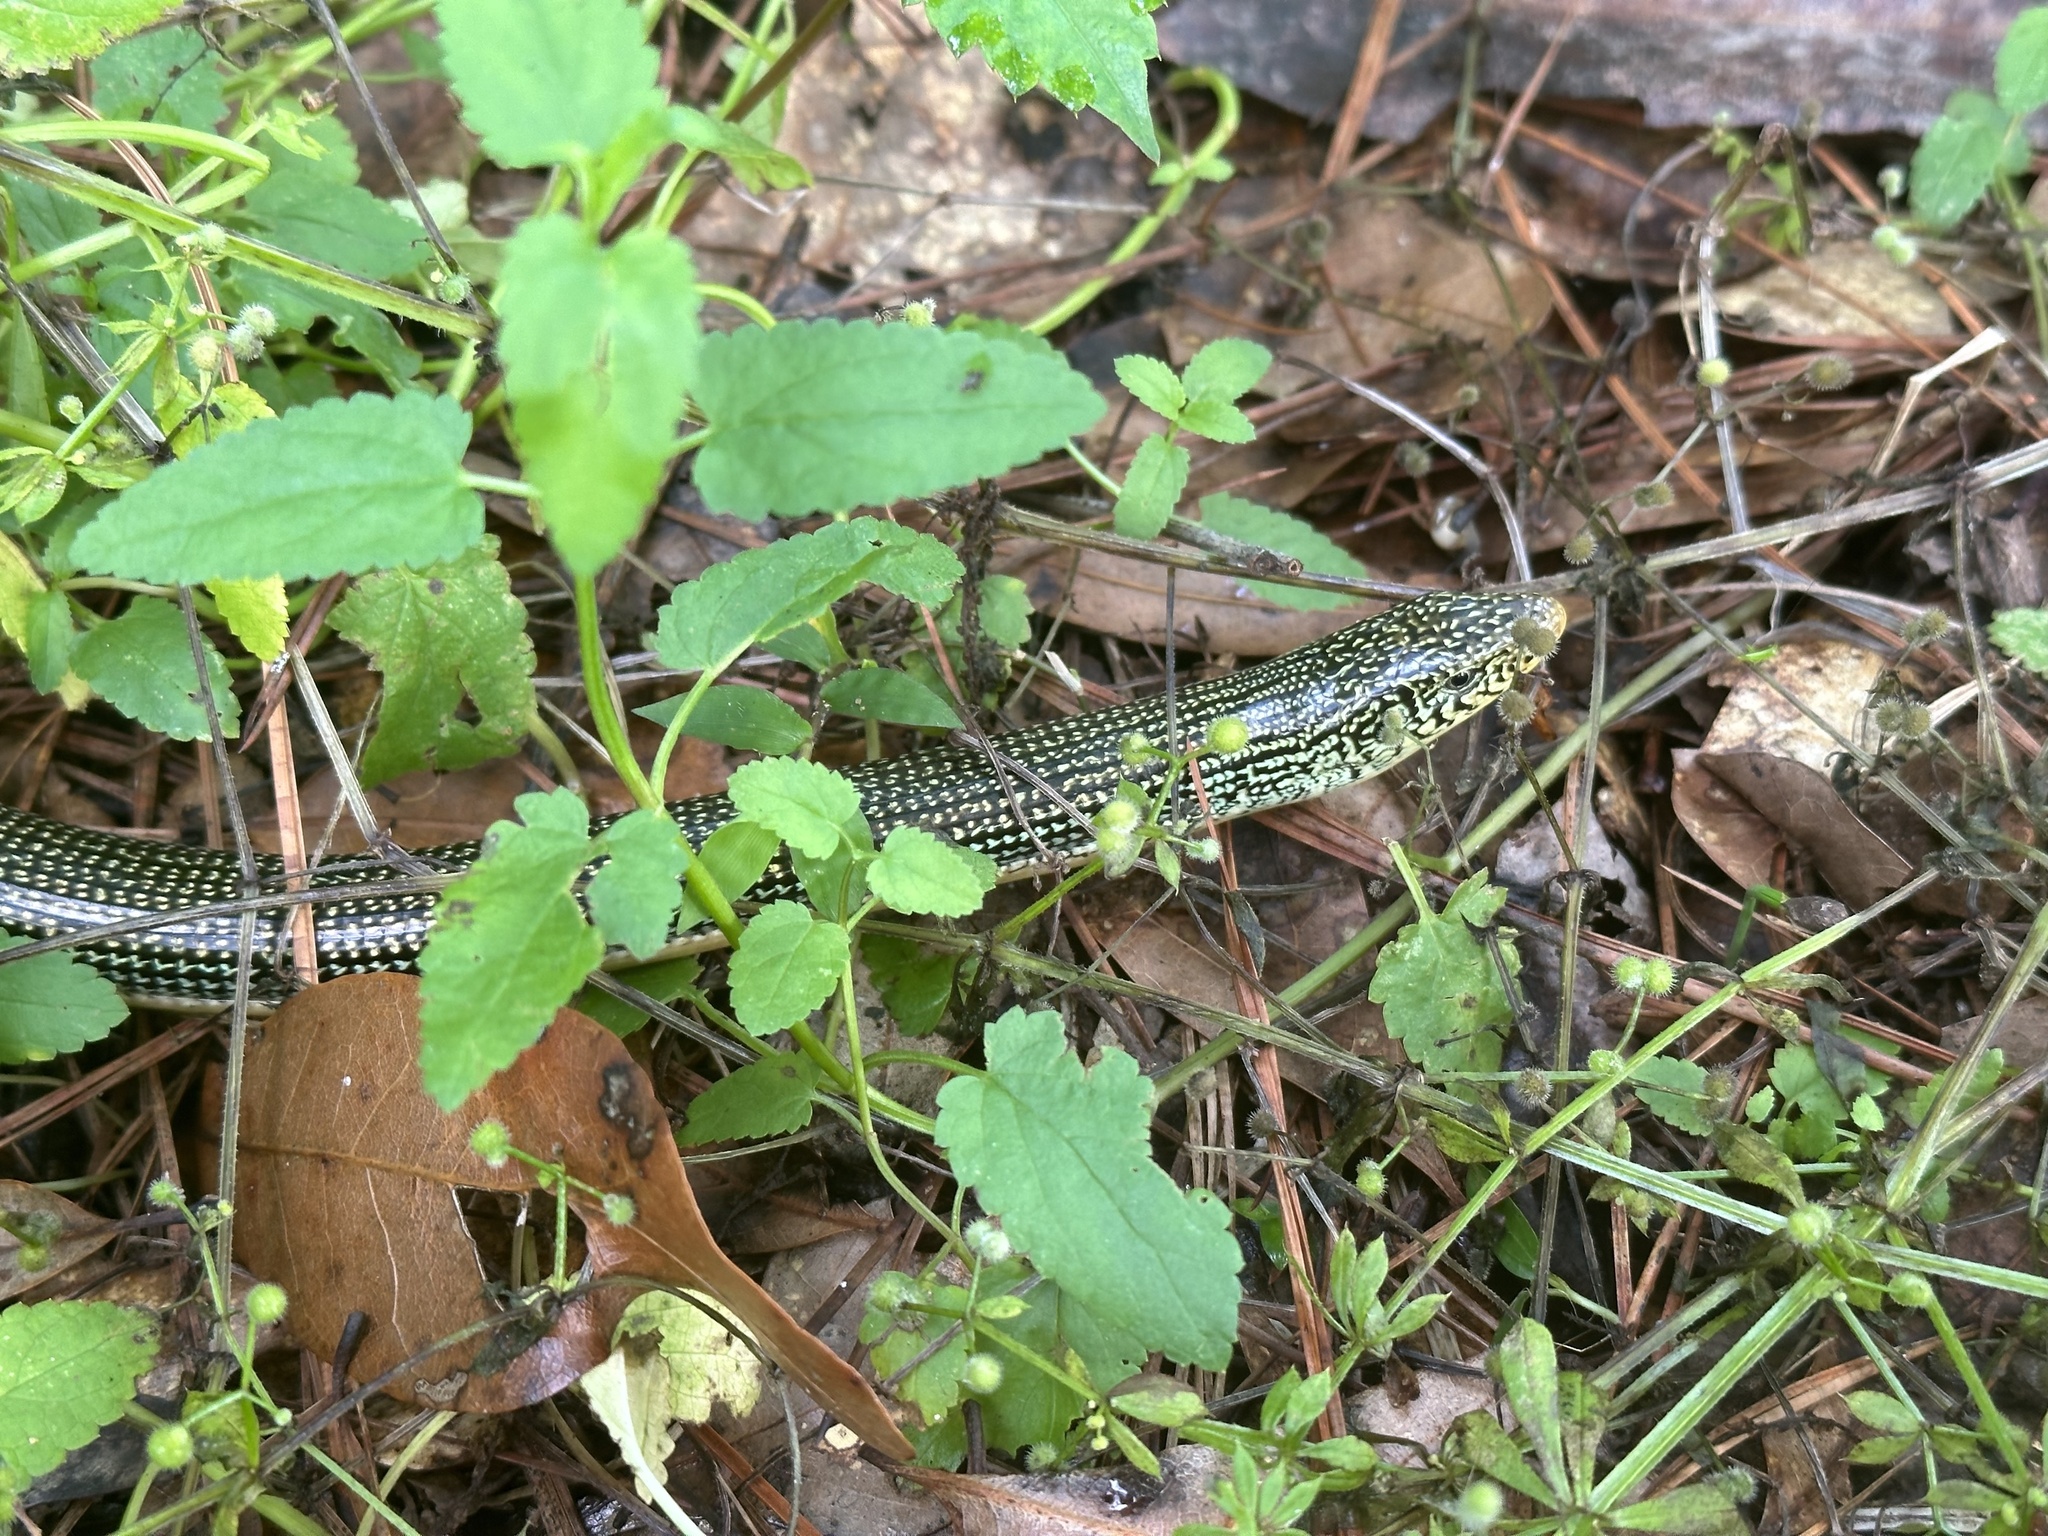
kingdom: Animalia
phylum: Chordata
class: Squamata
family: Anguidae
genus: Ophisaurus
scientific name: Ophisaurus ventralis
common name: Eastern glass lizard
